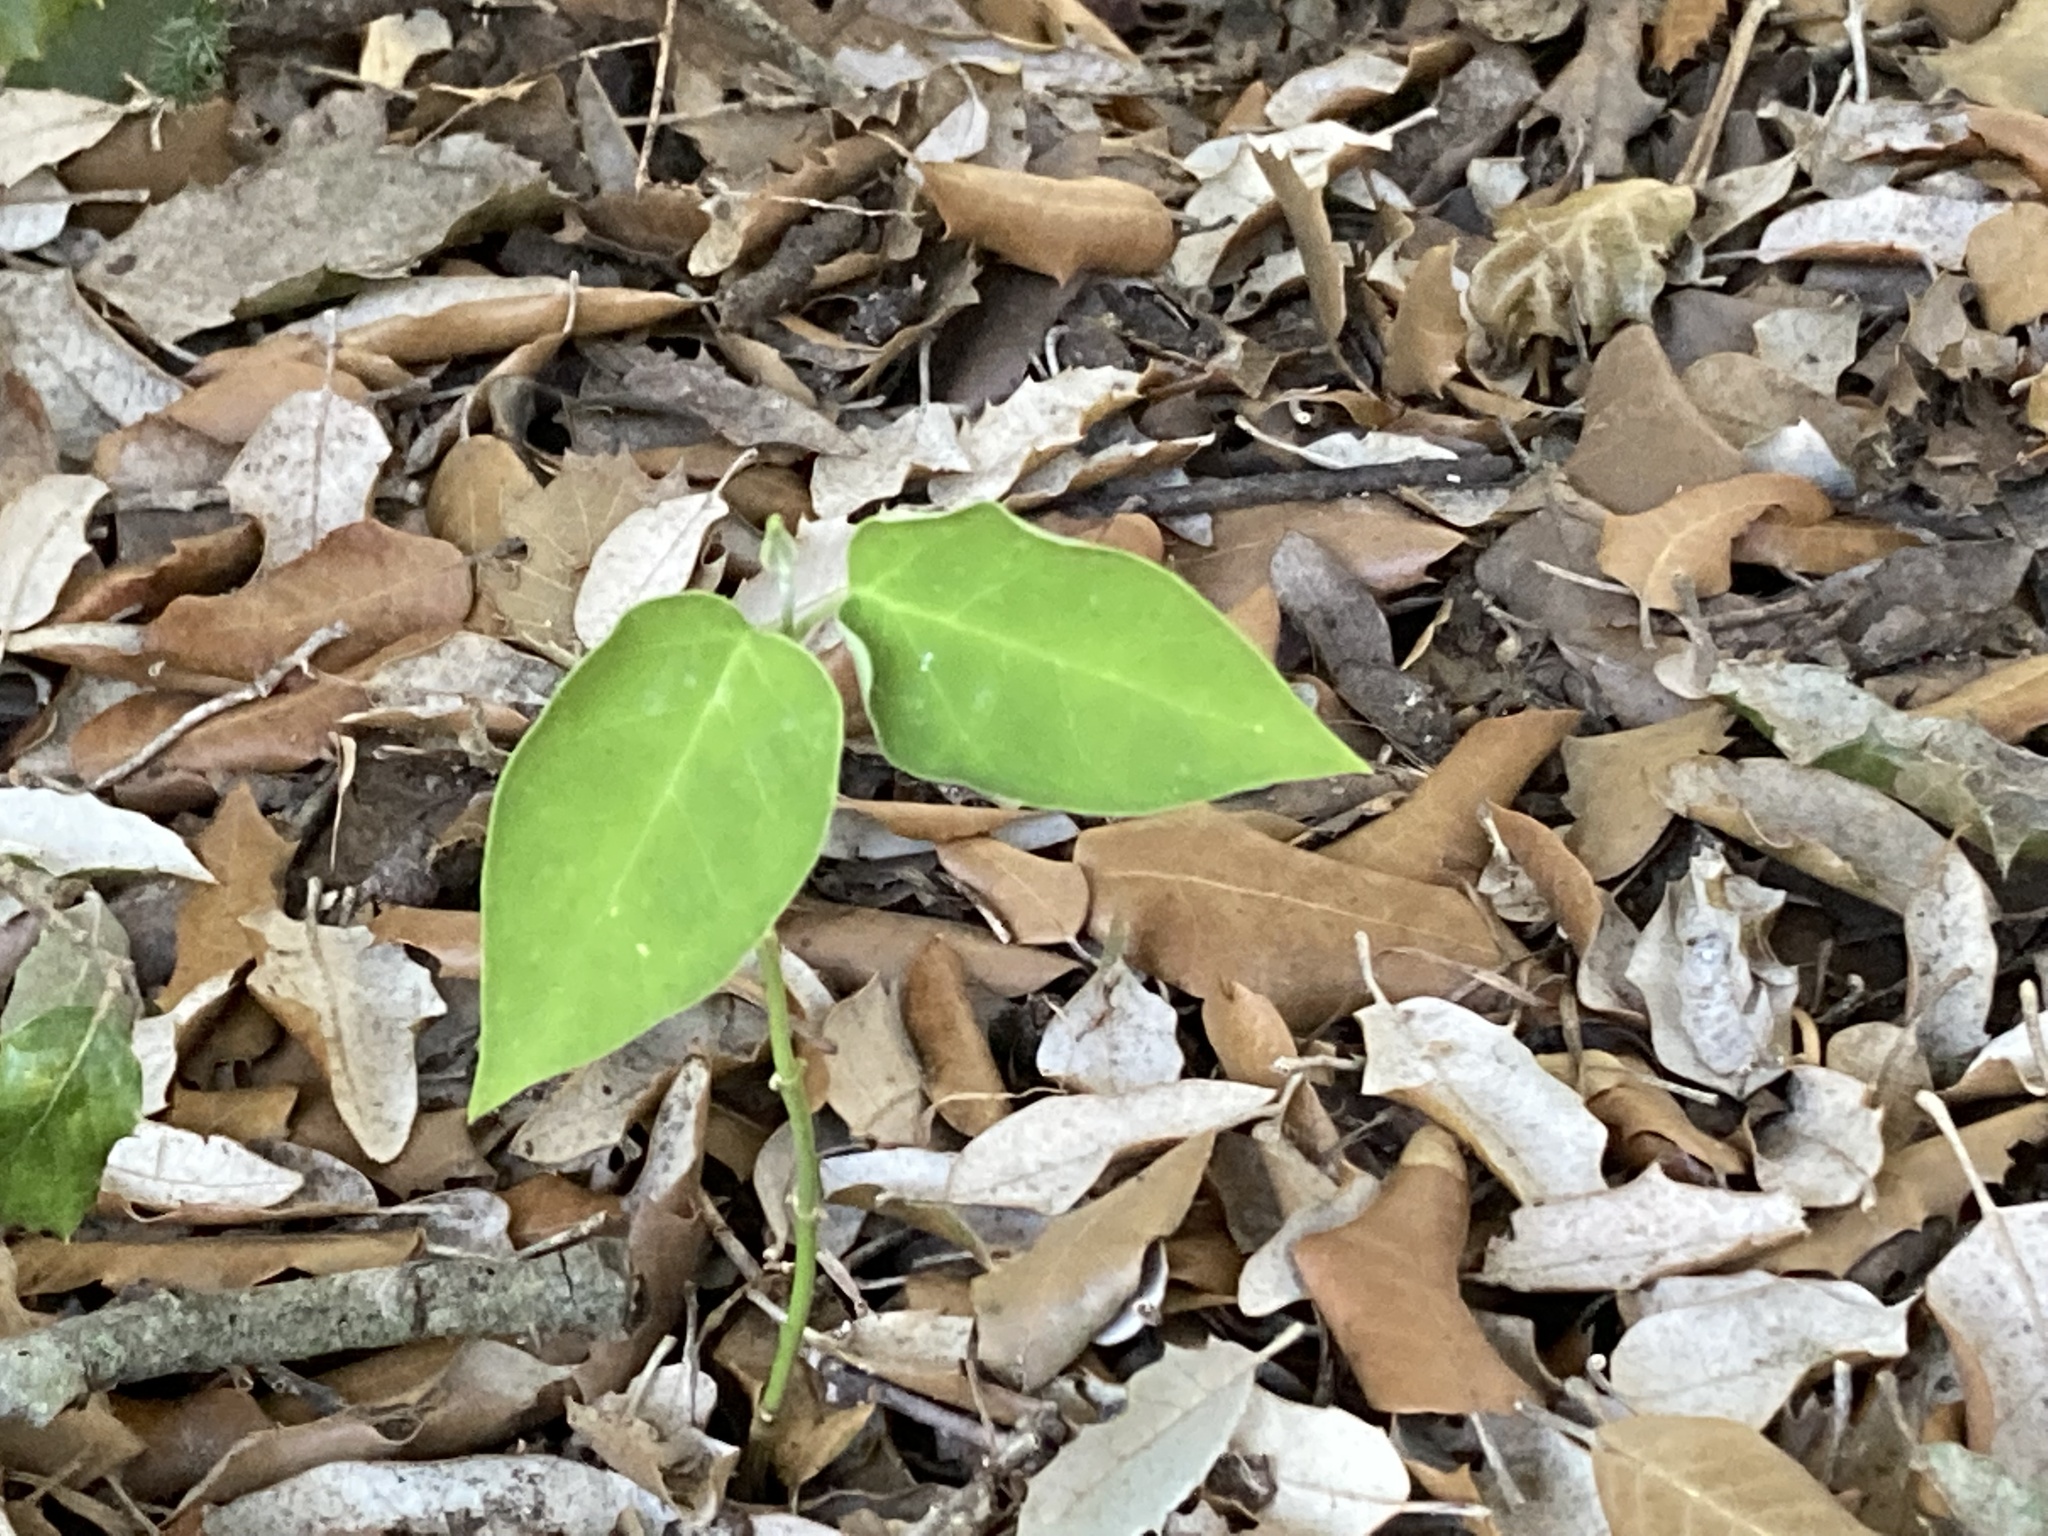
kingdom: Plantae
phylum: Tracheophyta
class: Magnoliopsida
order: Gentianales
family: Apocynaceae
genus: Araujia
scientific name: Araujia sericifera
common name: White bladderflower
